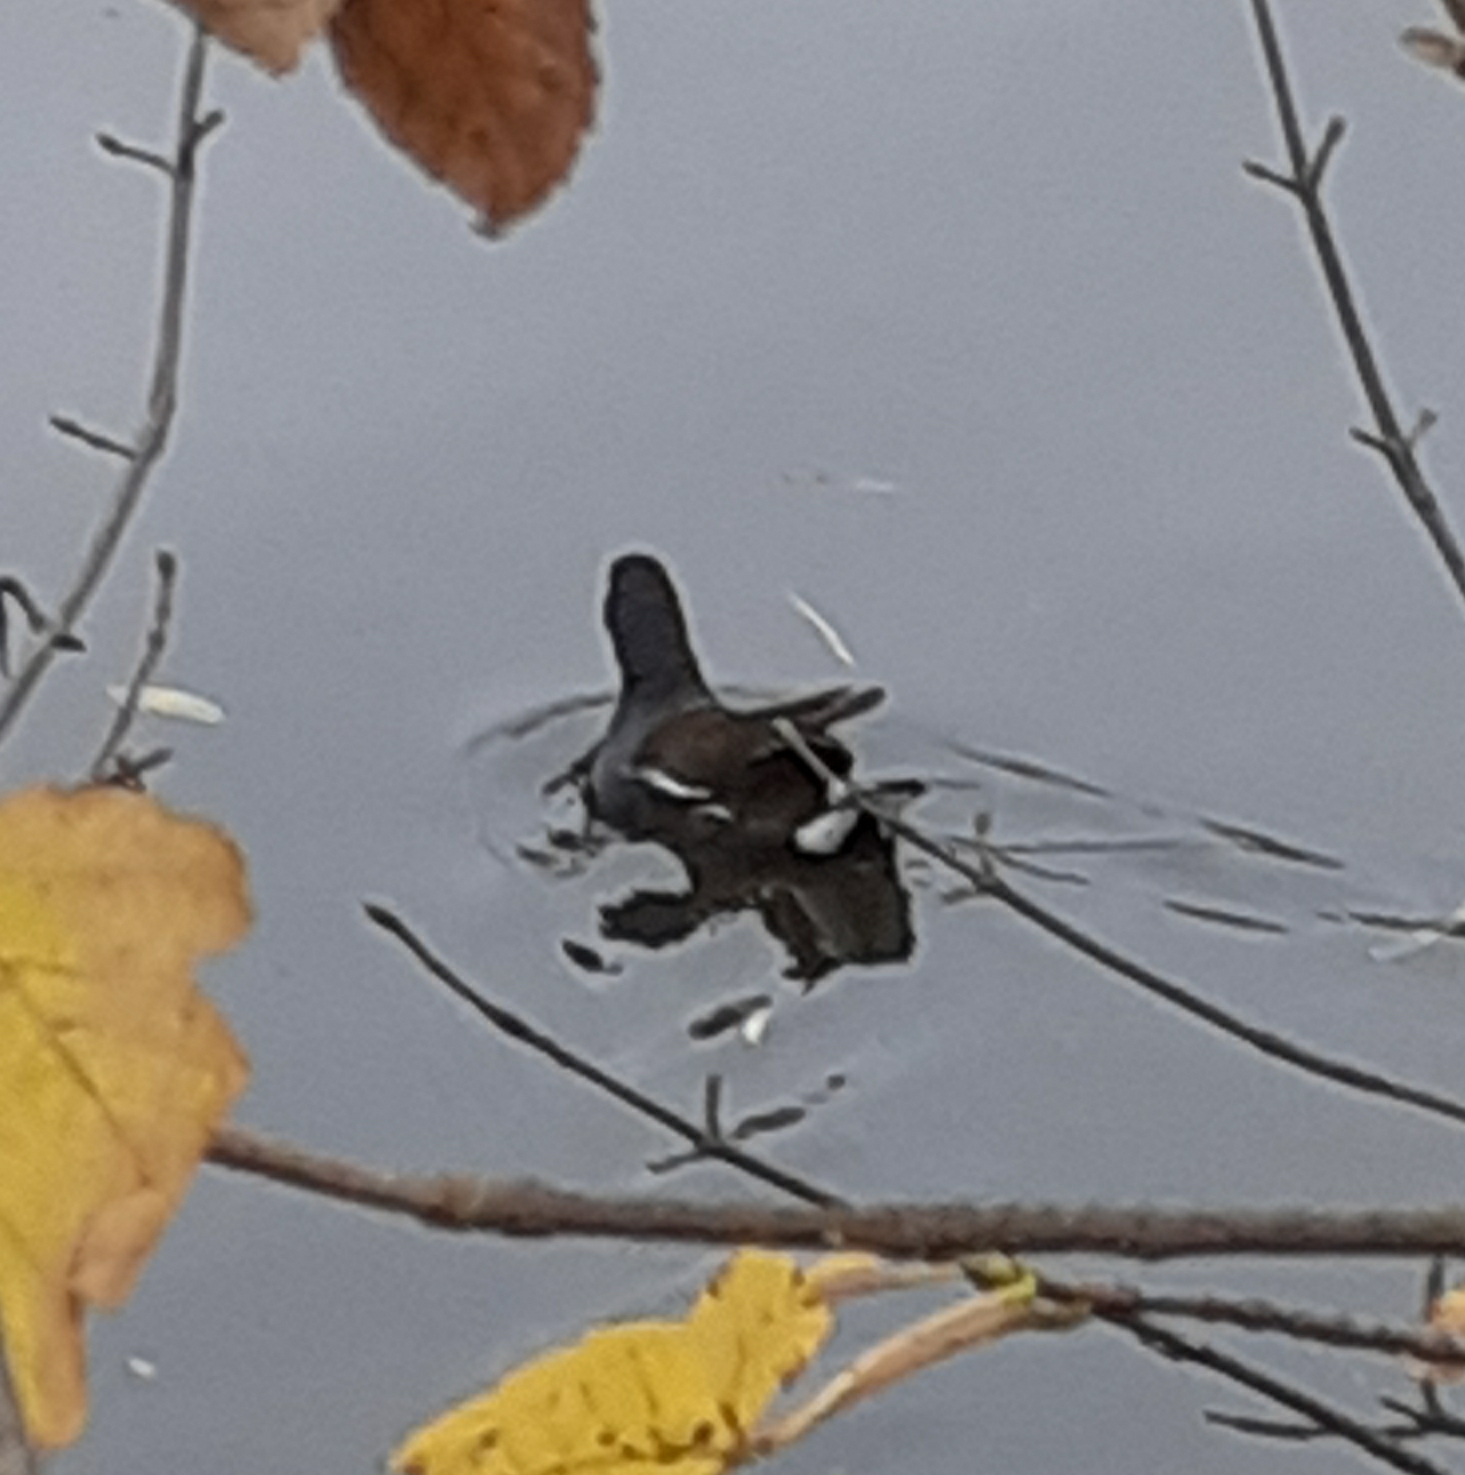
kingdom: Animalia
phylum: Chordata
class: Aves
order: Gruiformes
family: Rallidae
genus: Gallinula
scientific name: Gallinula chloropus
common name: Common moorhen
